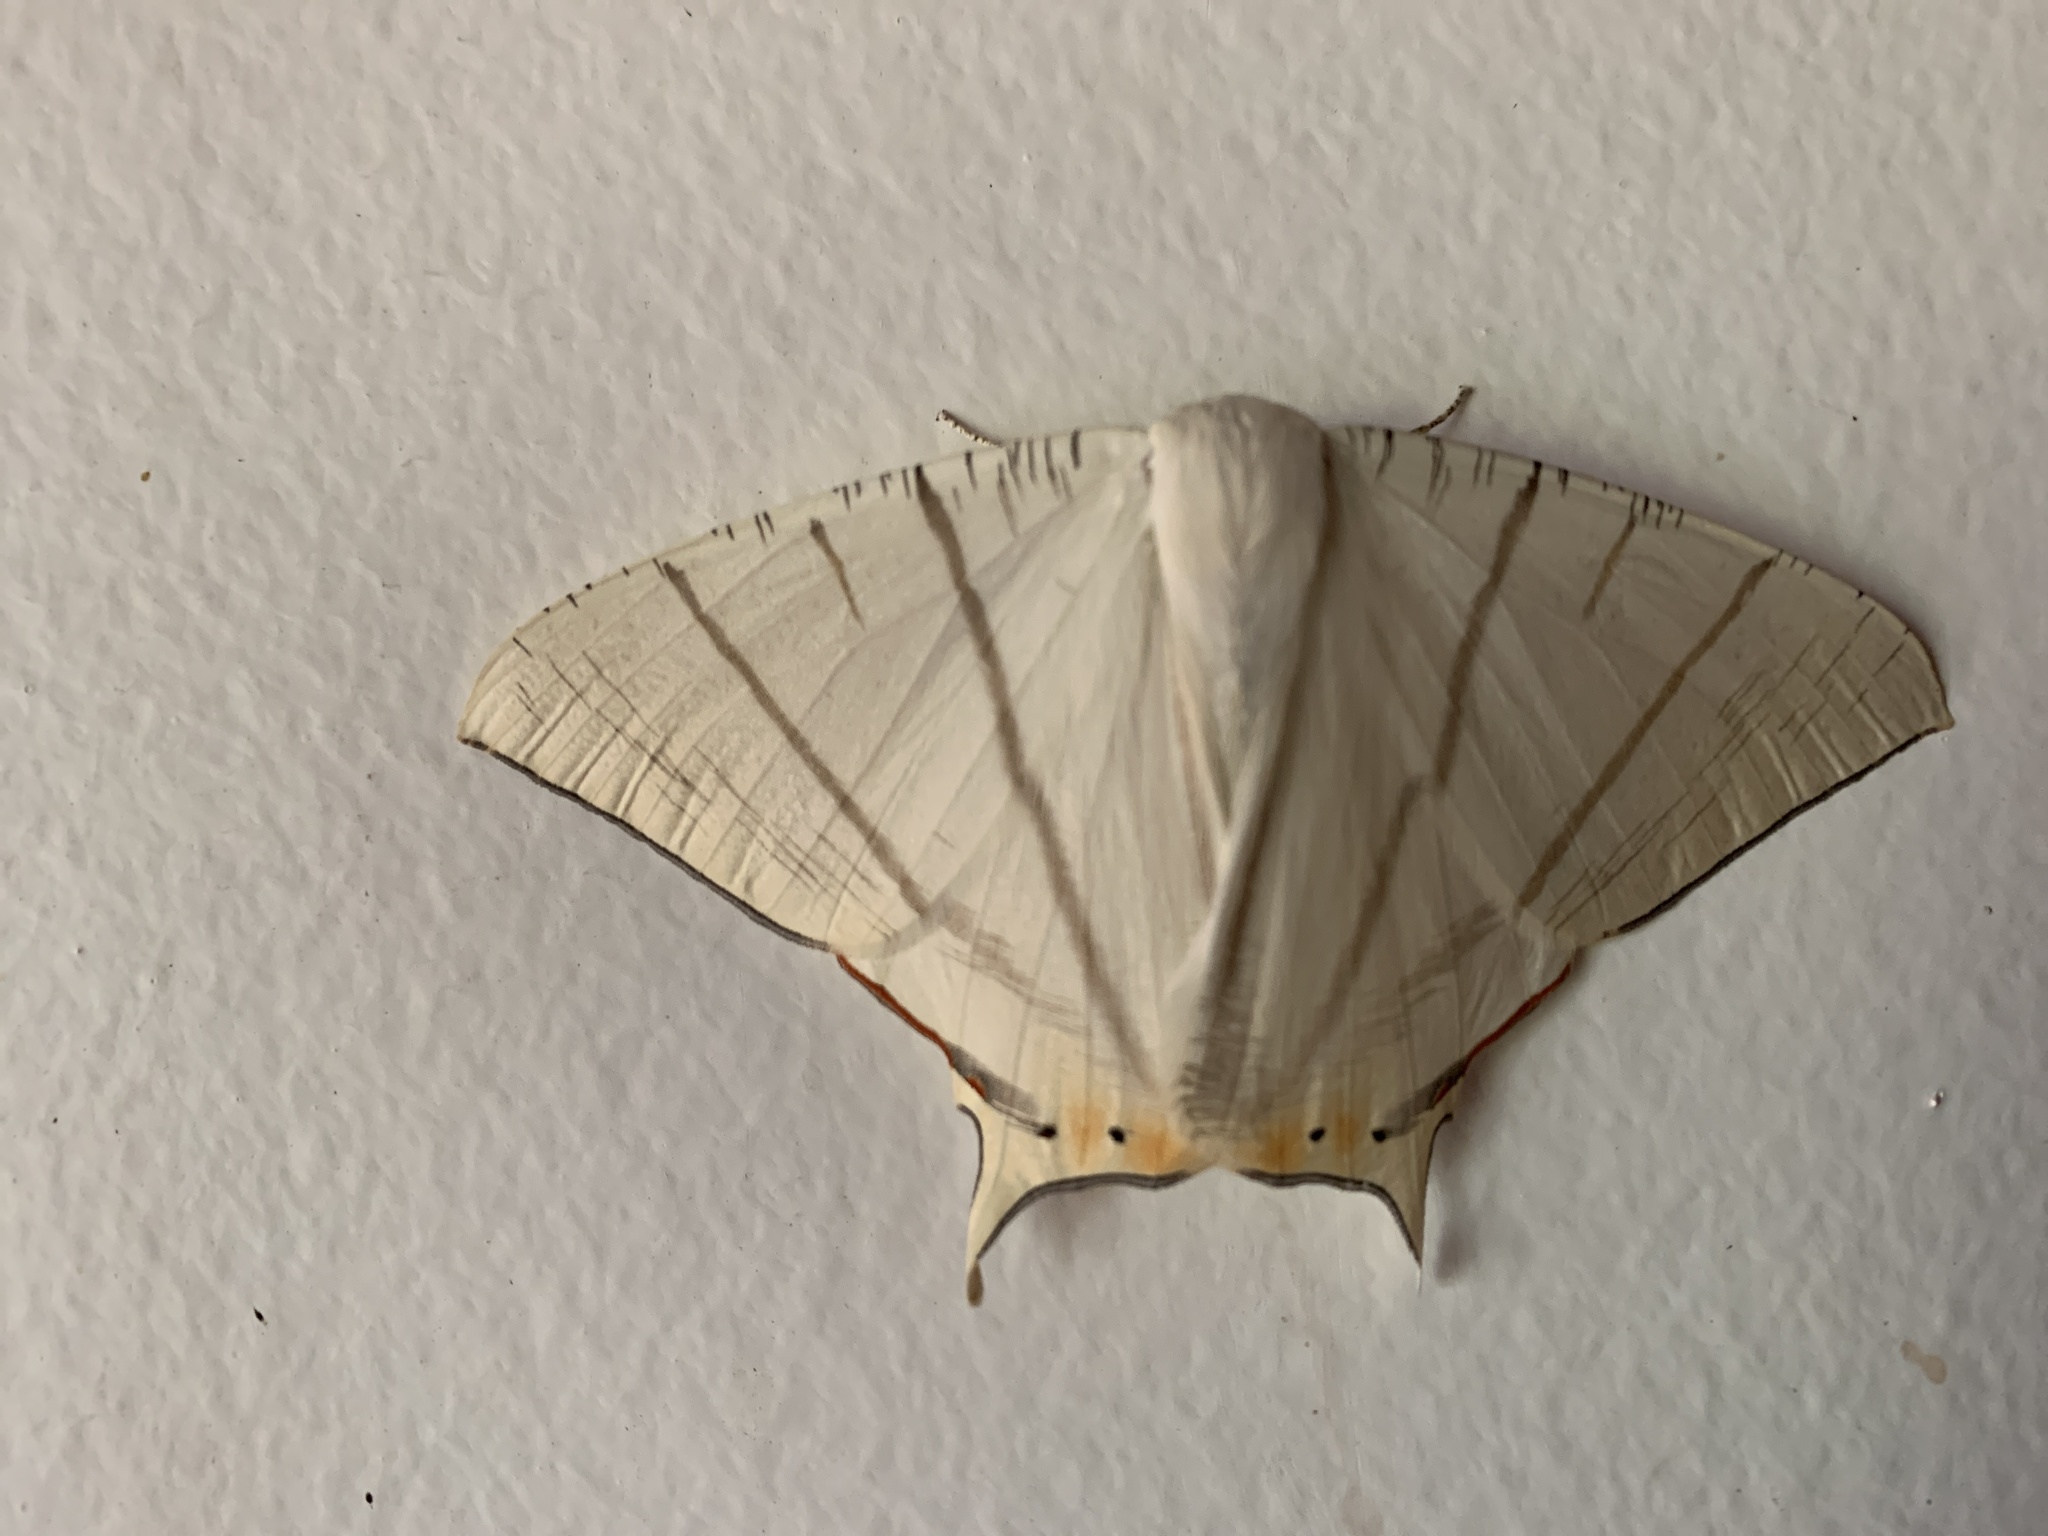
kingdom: Animalia
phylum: Arthropoda
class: Insecta
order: Lepidoptera
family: Geometridae
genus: Ourapteryx
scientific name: Ourapteryx marginata
